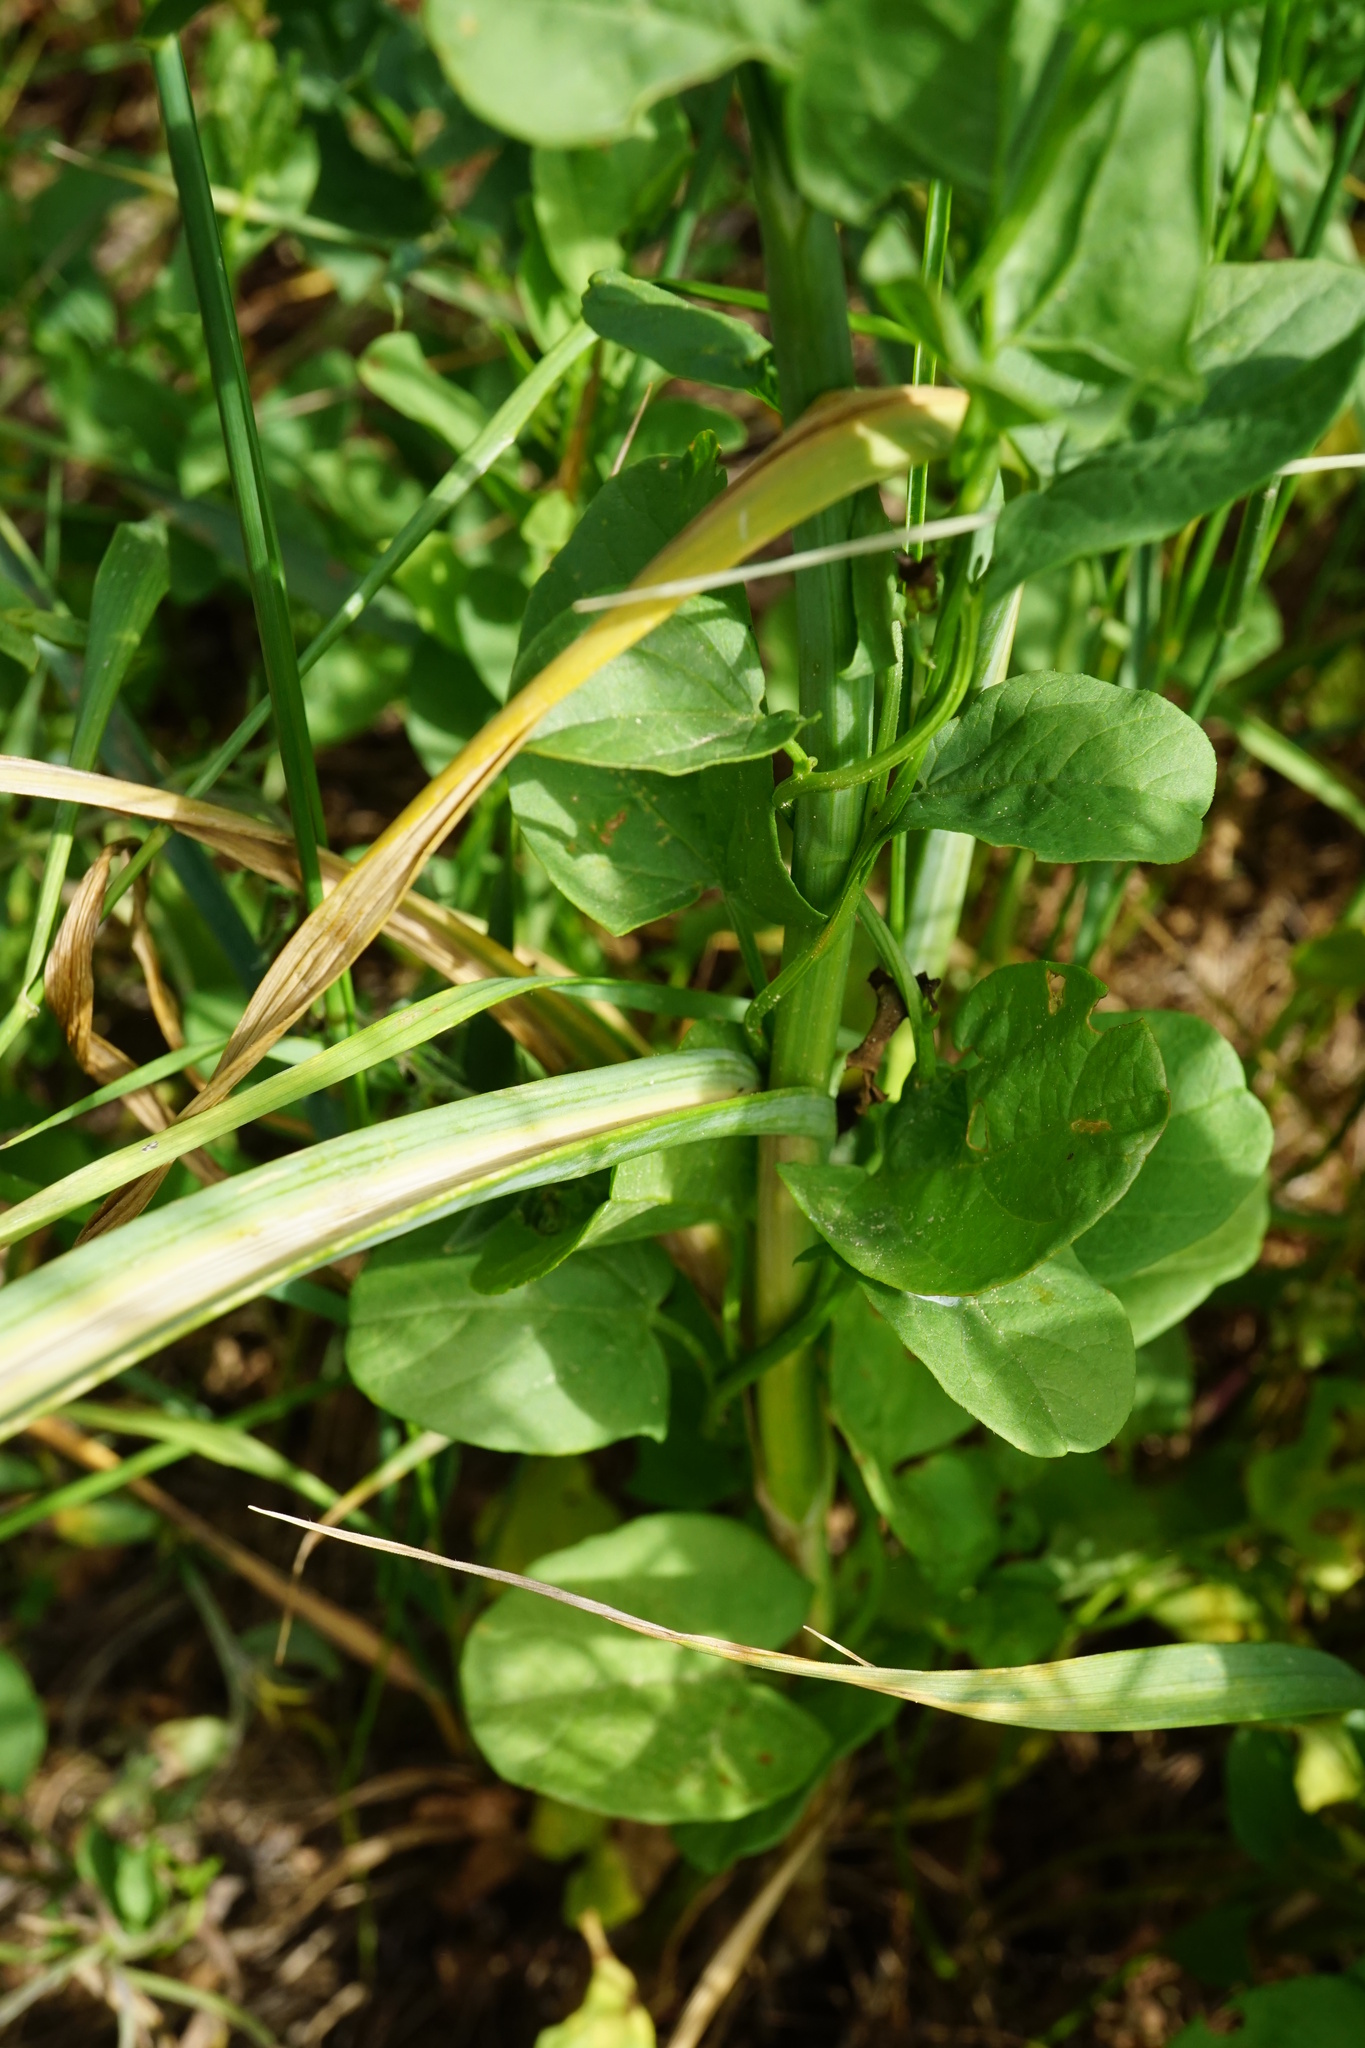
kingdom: Plantae
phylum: Tracheophyta
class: Liliopsida
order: Asparagales
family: Amaryllidaceae
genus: Allium
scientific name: Allium rotundum
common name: Sand leek
